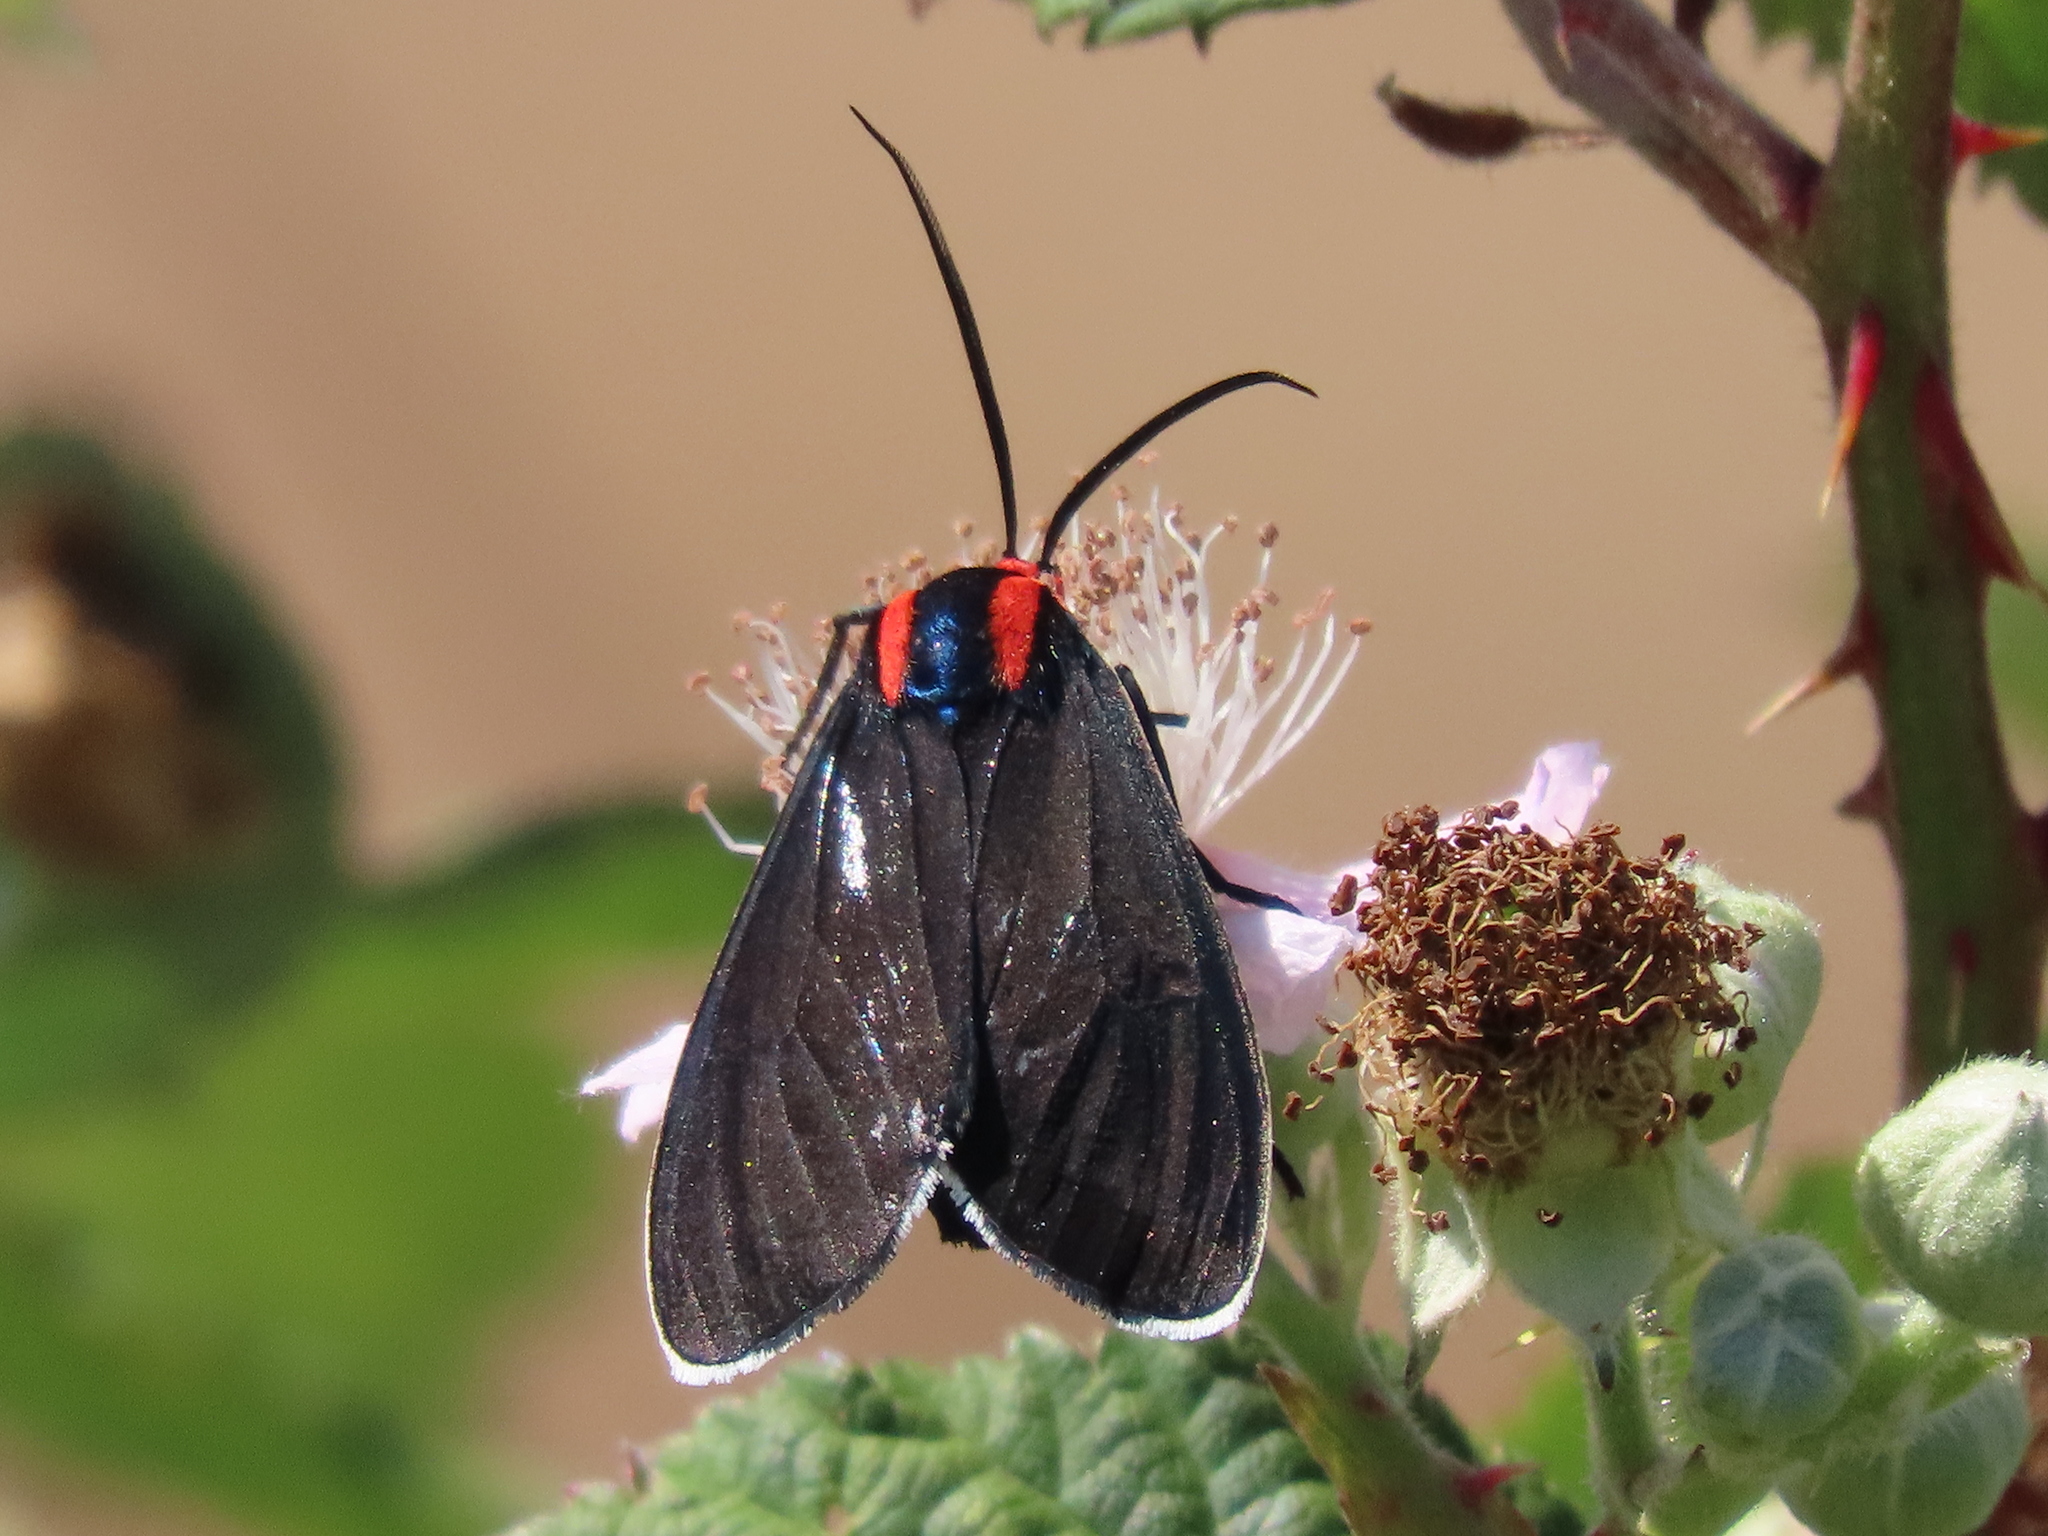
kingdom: Animalia
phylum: Arthropoda
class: Insecta
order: Lepidoptera
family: Erebidae
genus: Ctenucha
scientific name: Ctenucha multifaria
